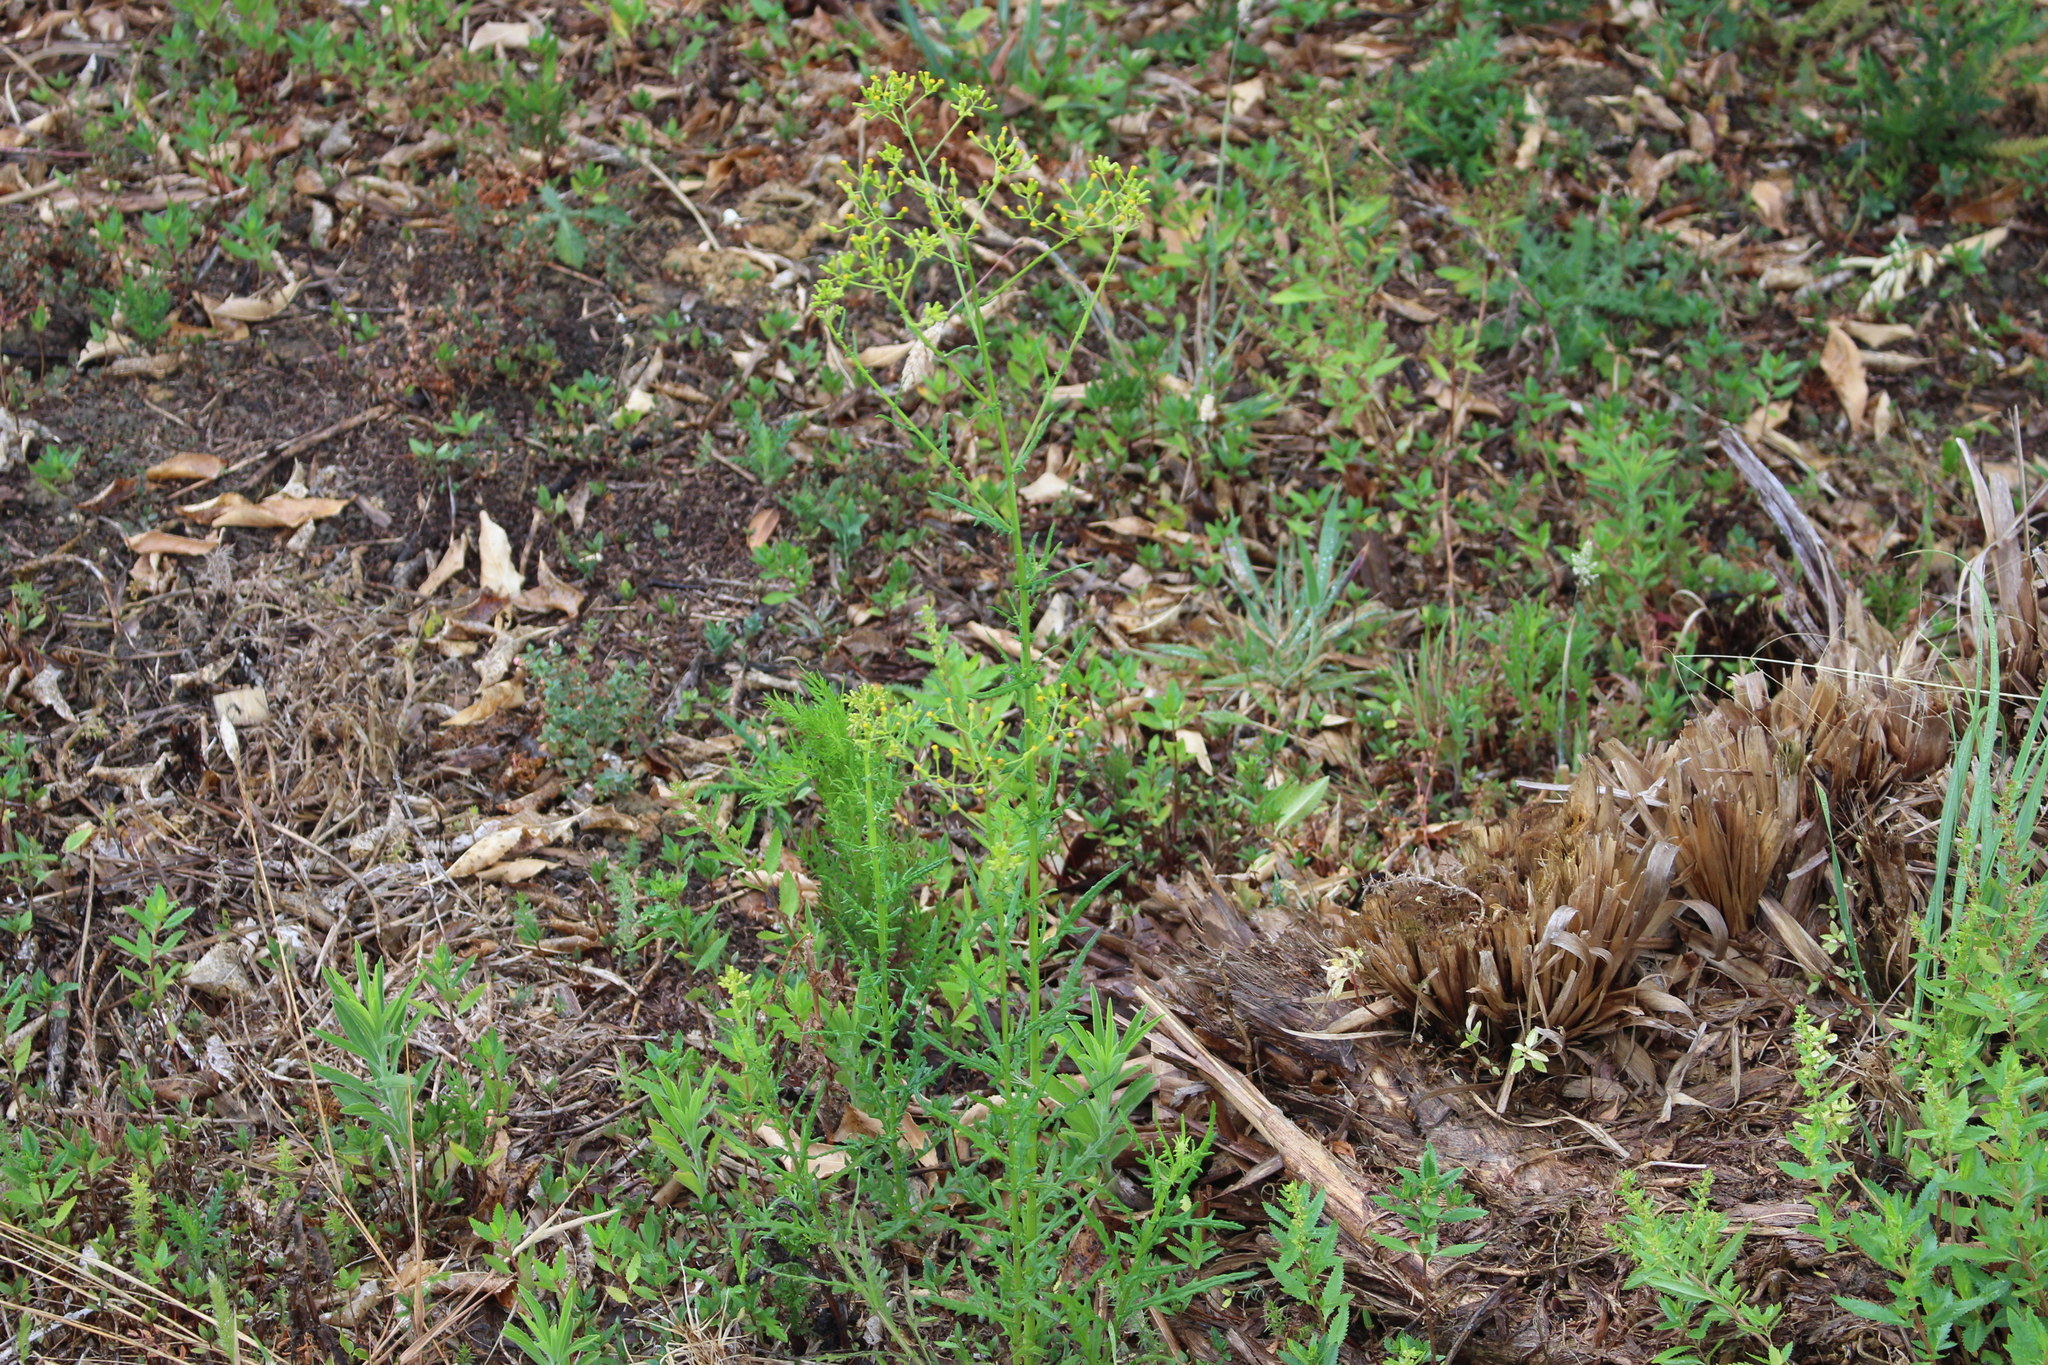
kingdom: Plantae
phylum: Tracheophyta
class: Magnoliopsida
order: Asterales
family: Asteraceae
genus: Senecio
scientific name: Senecio hispidulus
